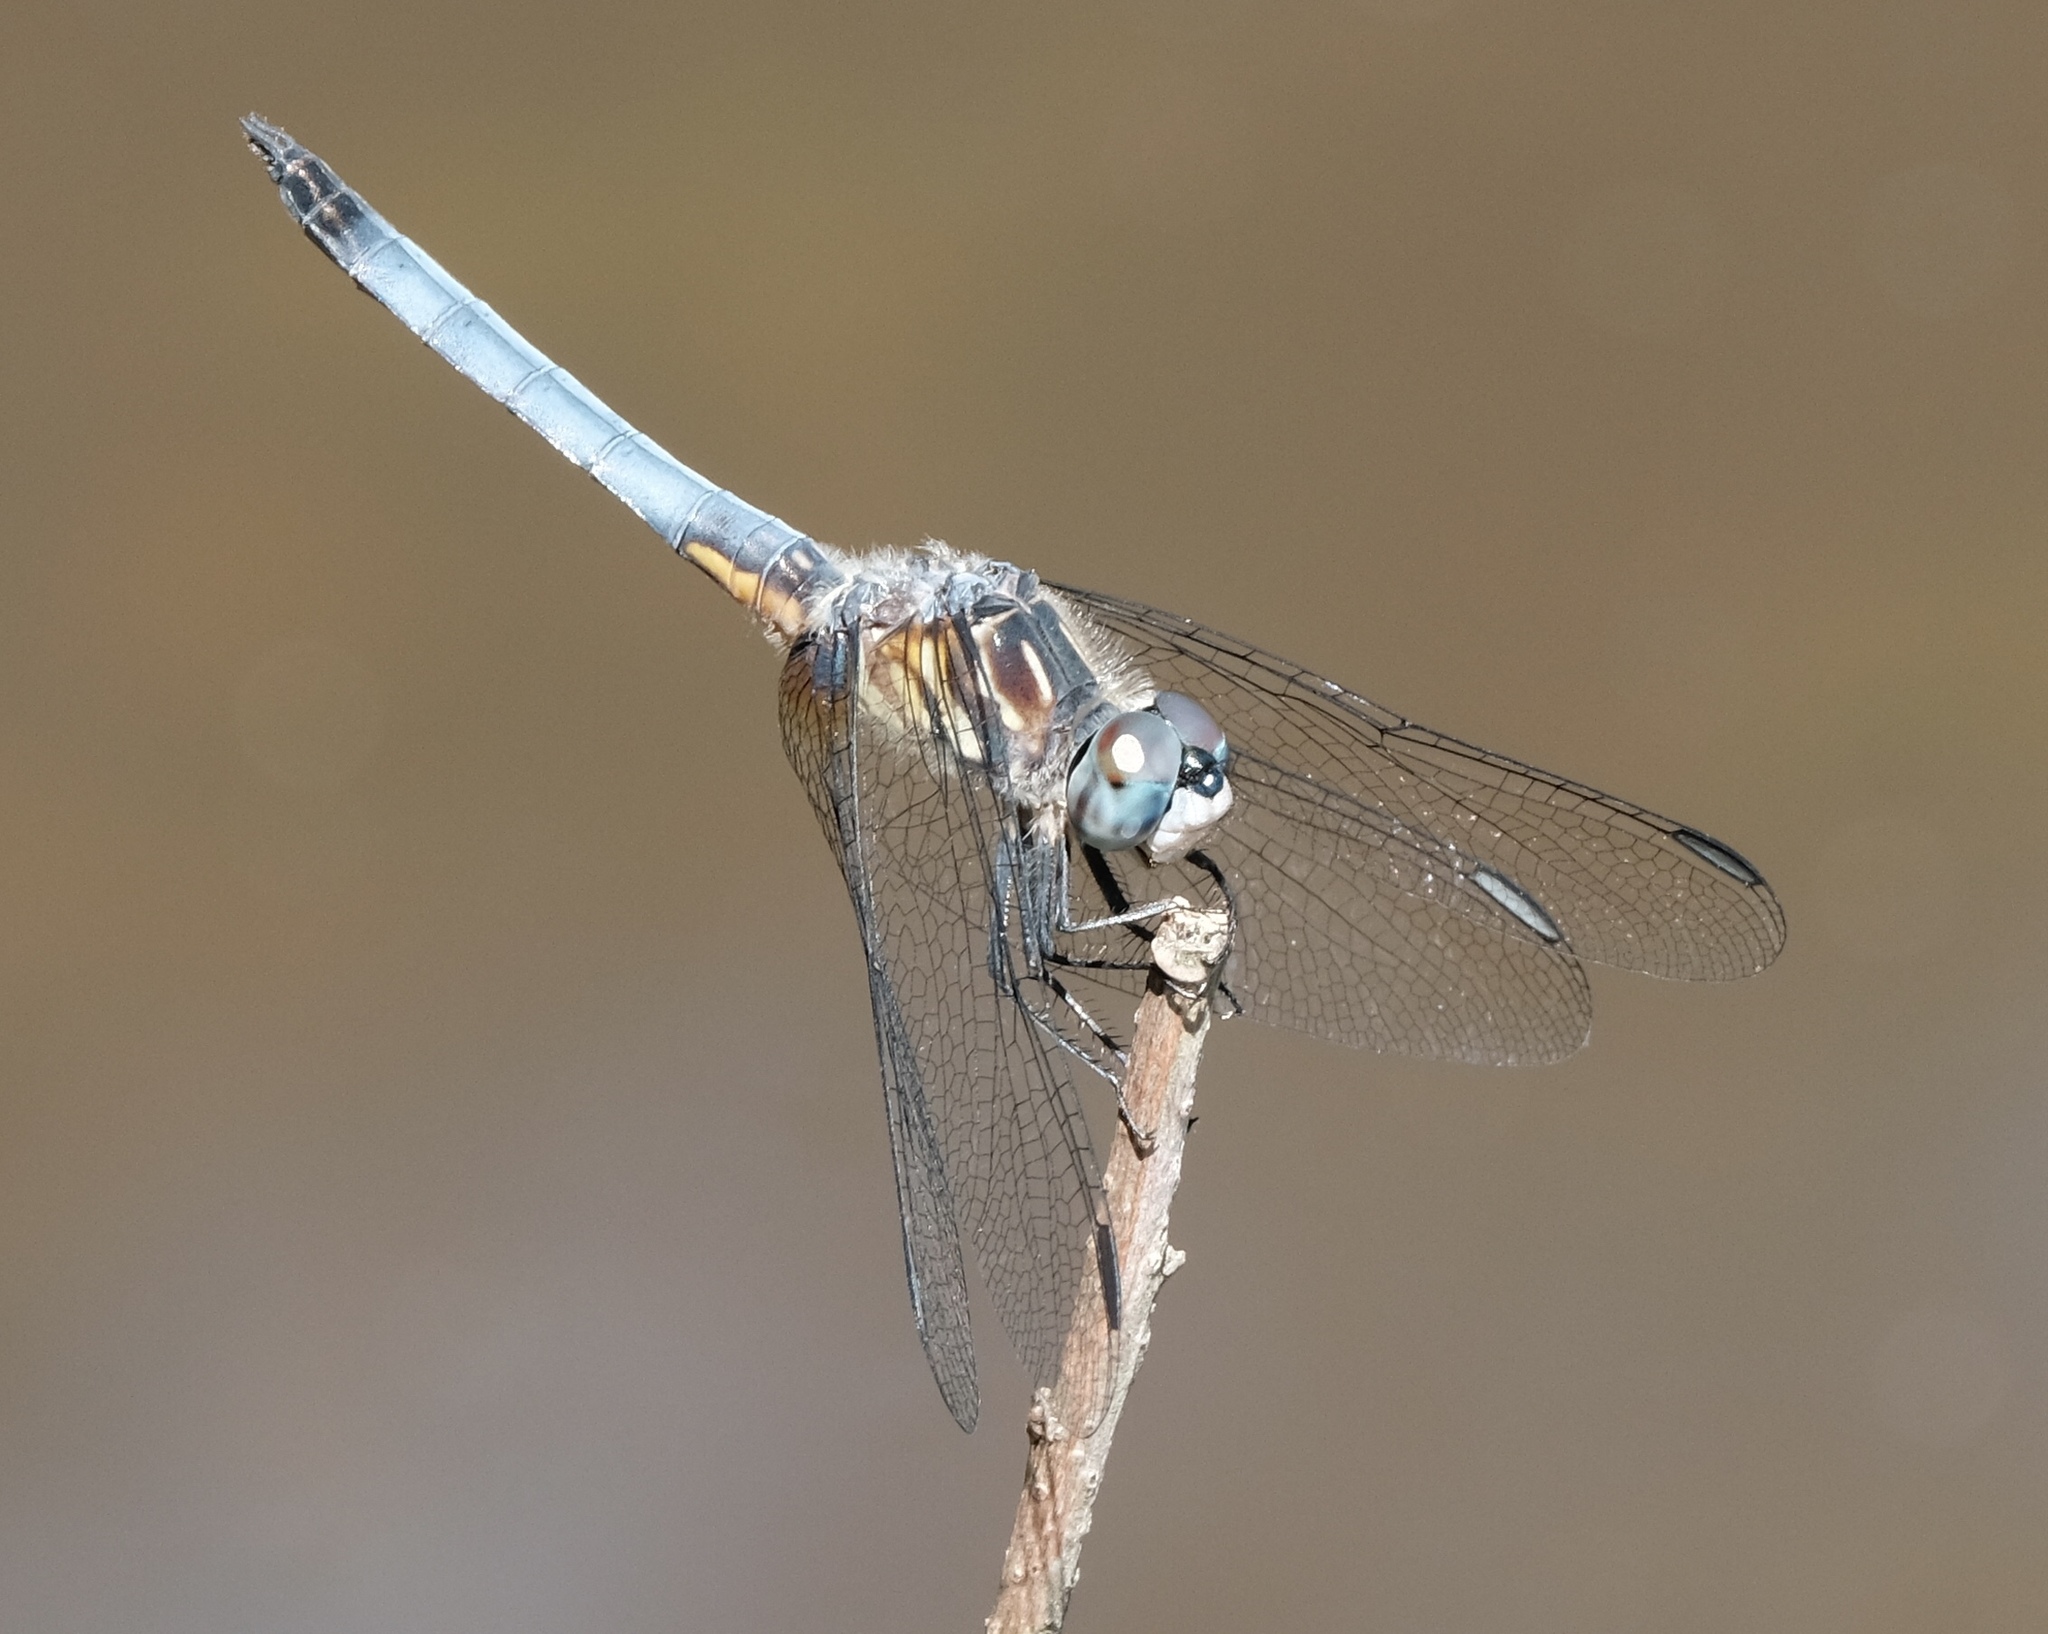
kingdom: Animalia
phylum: Arthropoda
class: Insecta
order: Odonata
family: Libellulidae
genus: Pachydiplax
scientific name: Pachydiplax longipennis
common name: Blue dasher
